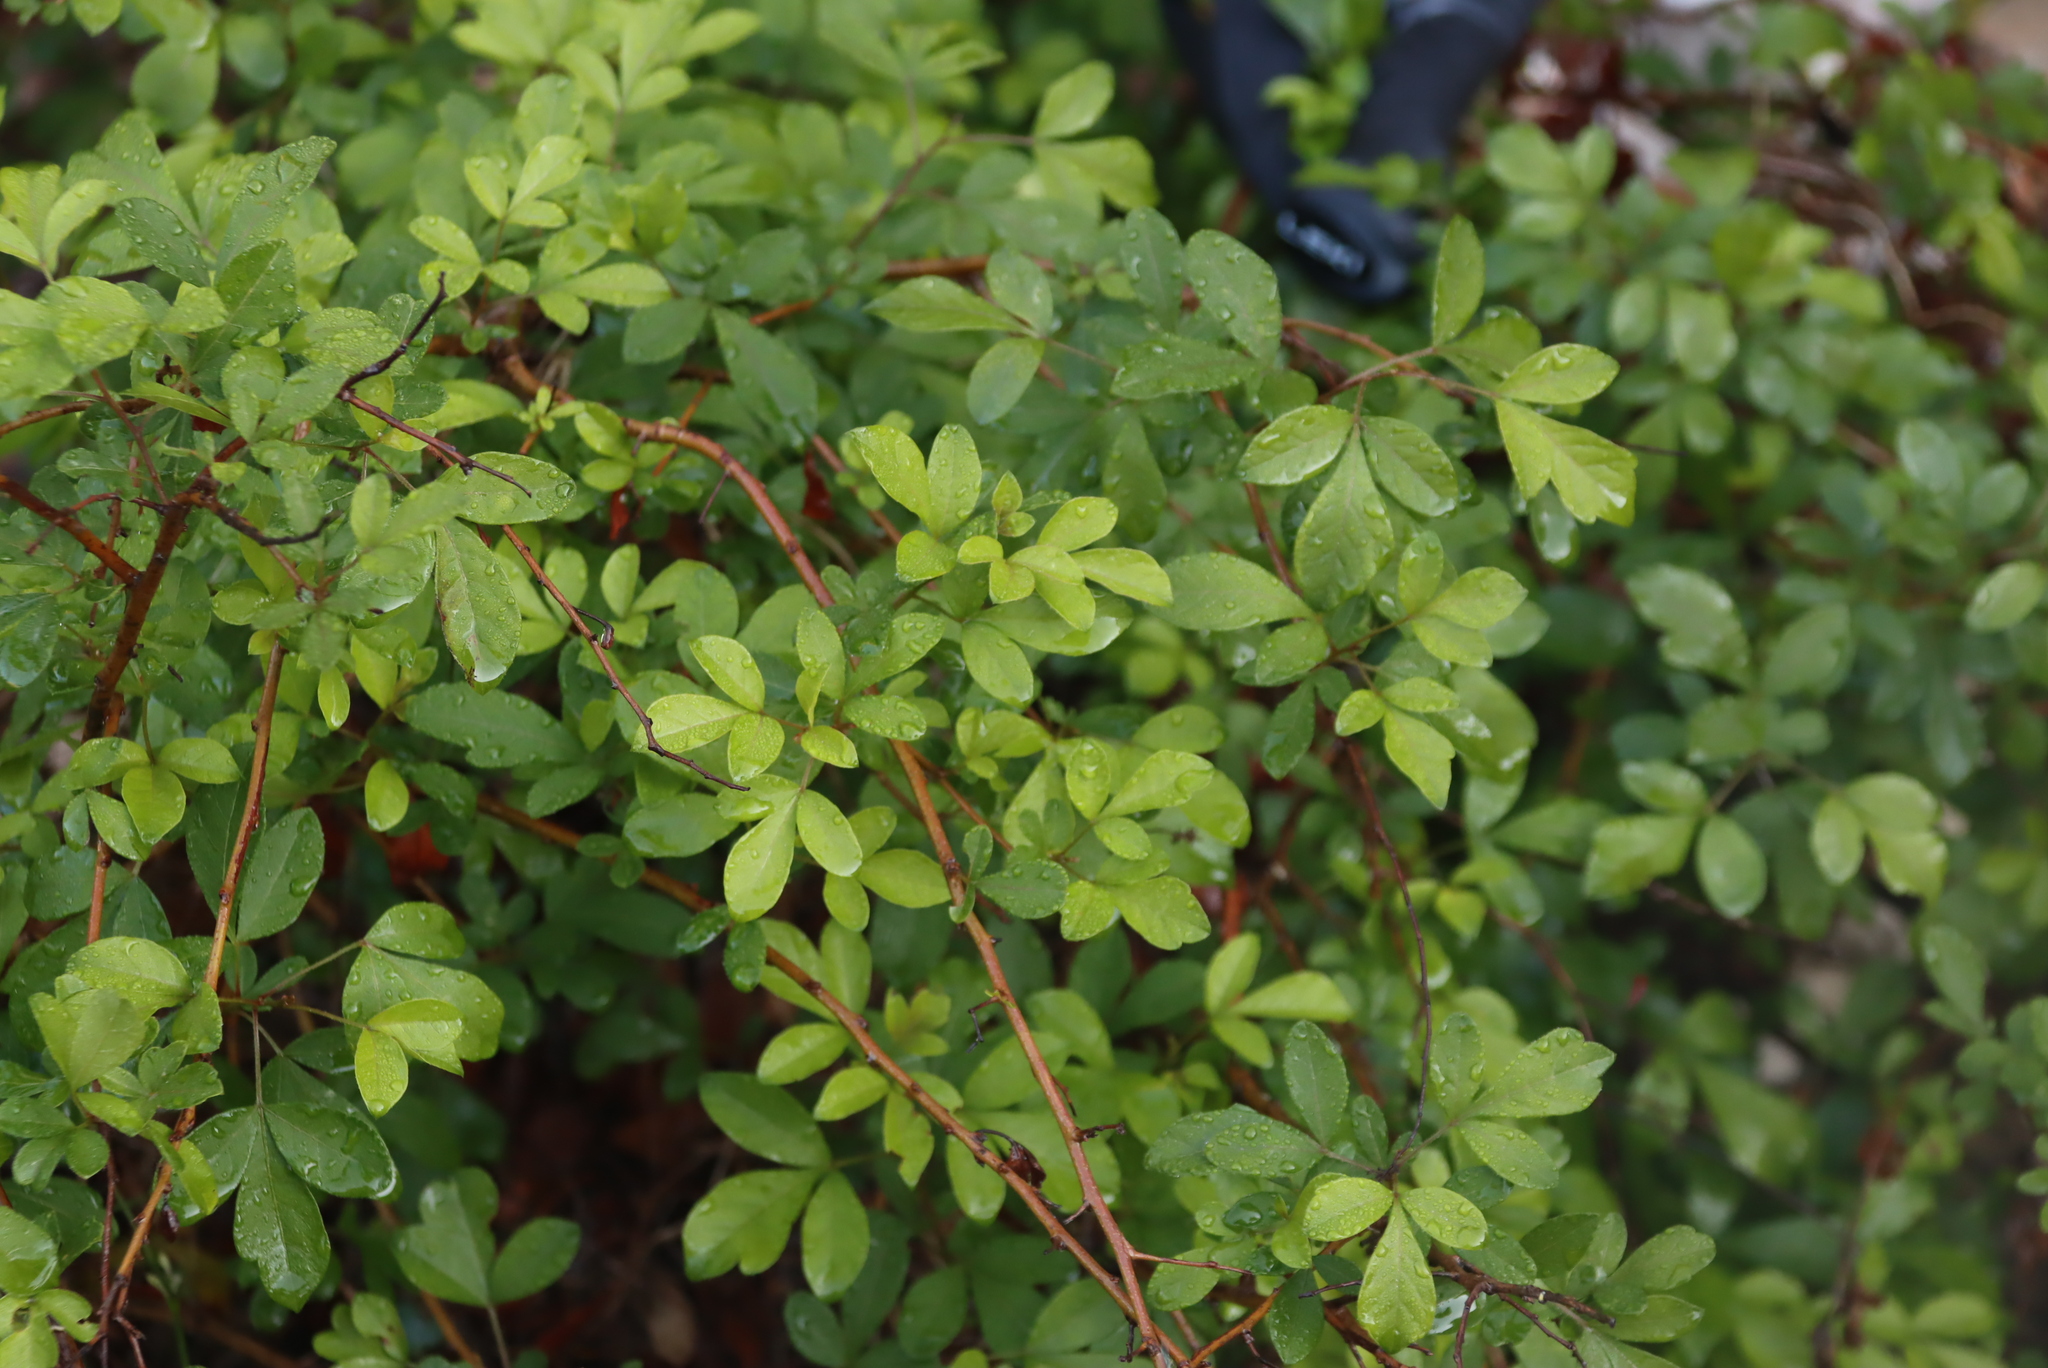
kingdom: Plantae
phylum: Tracheophyta
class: Magnoliopsida
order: Sapindales
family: Anacardiaceae
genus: Searsia
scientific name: Searsia pyroides
